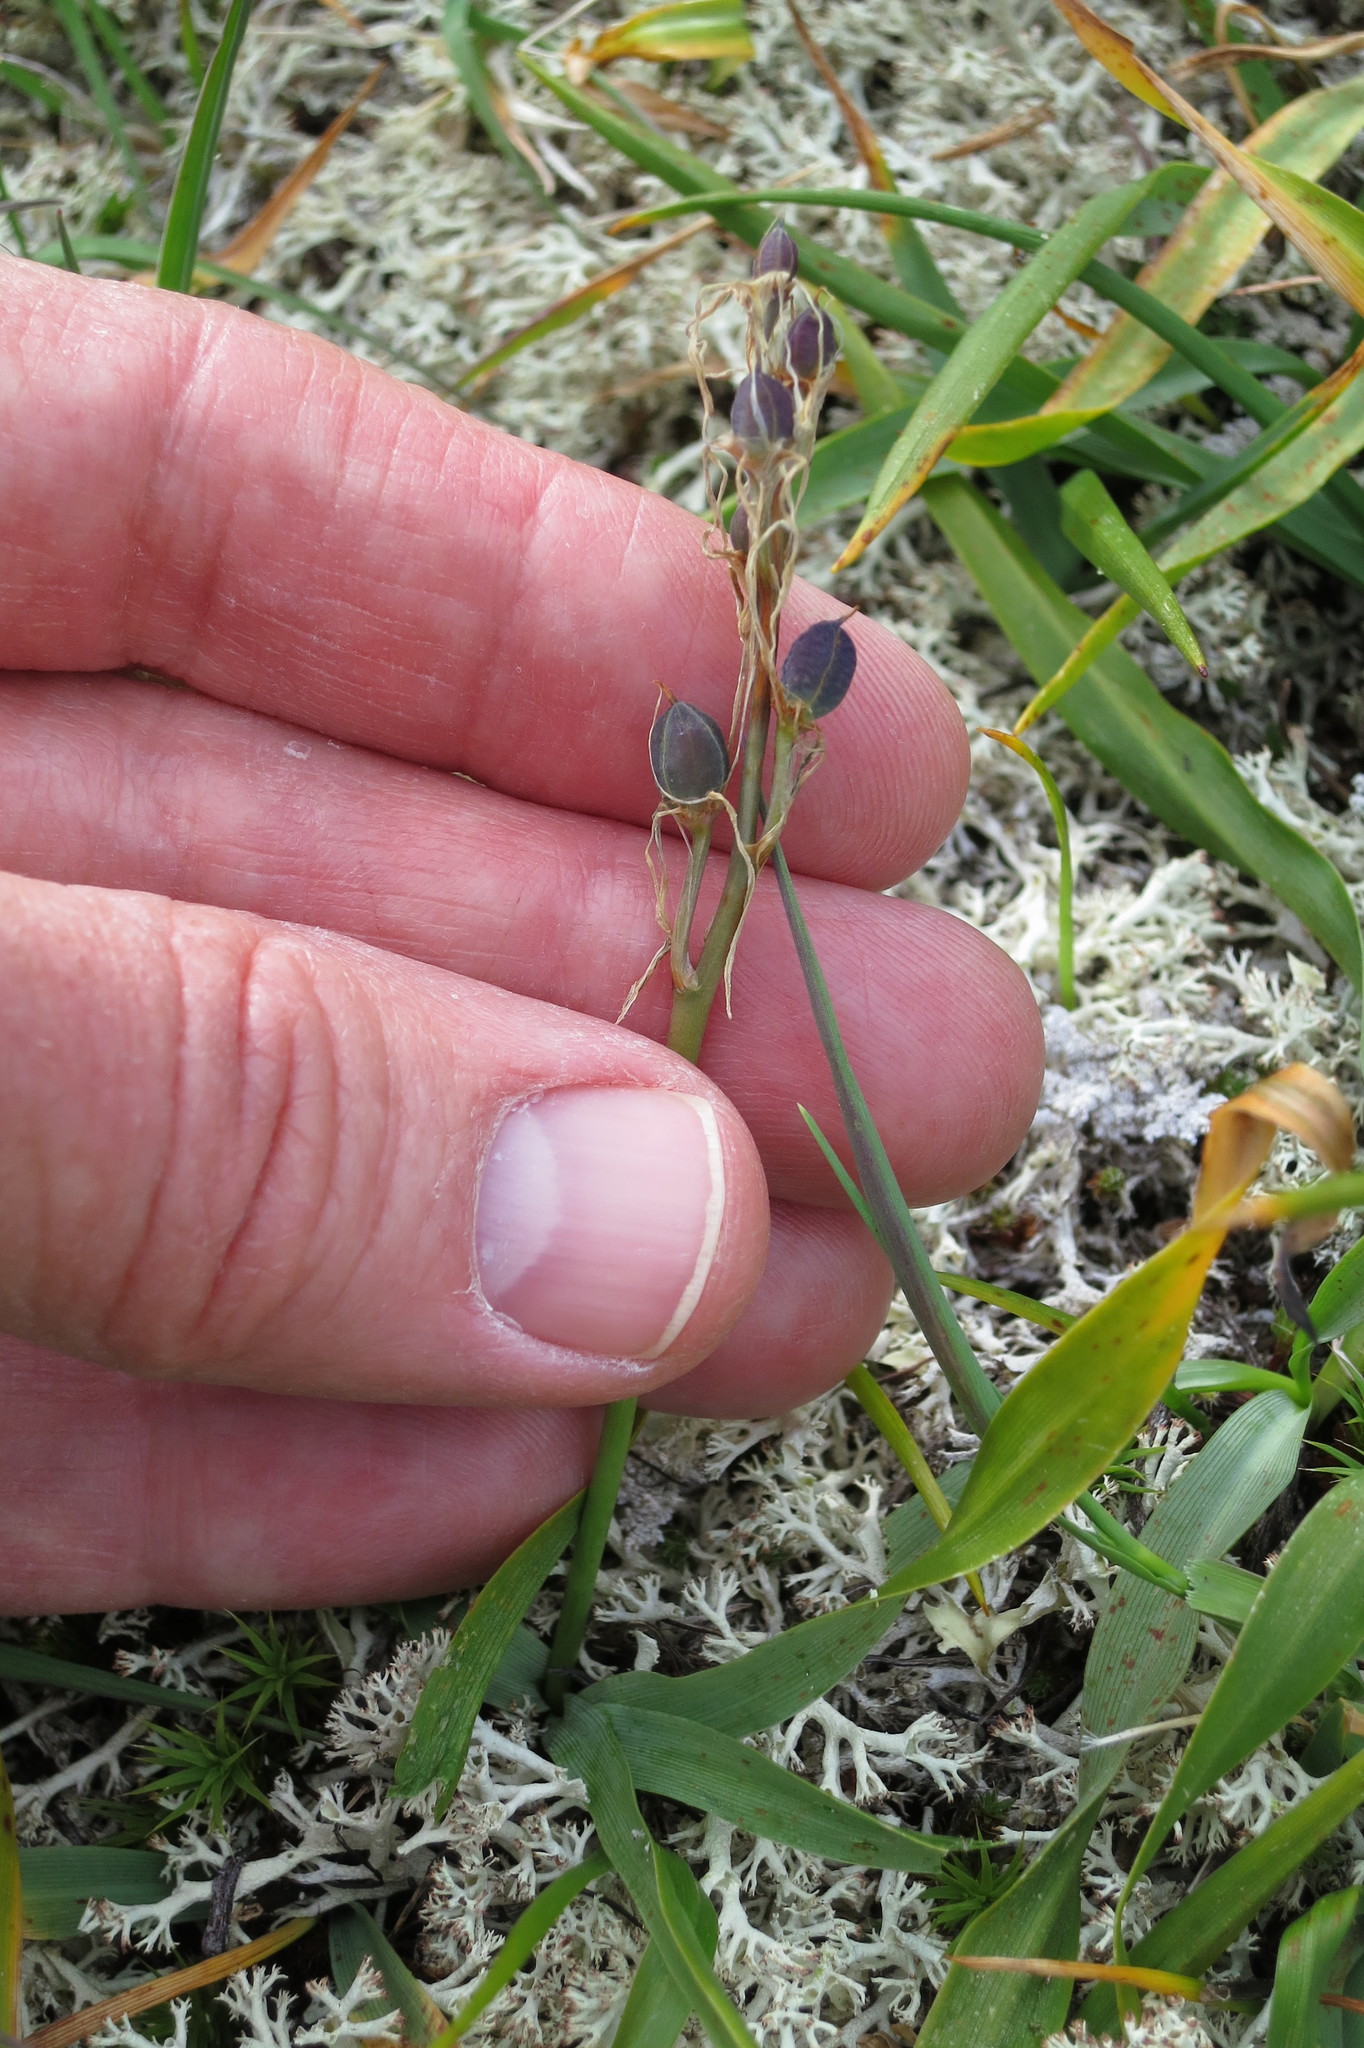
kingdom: Plantae
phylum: Tracheophyta
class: Liliopsida
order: Asparagales
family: Asparagaceae
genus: Camassia
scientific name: Camassia quamash
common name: Common camas
